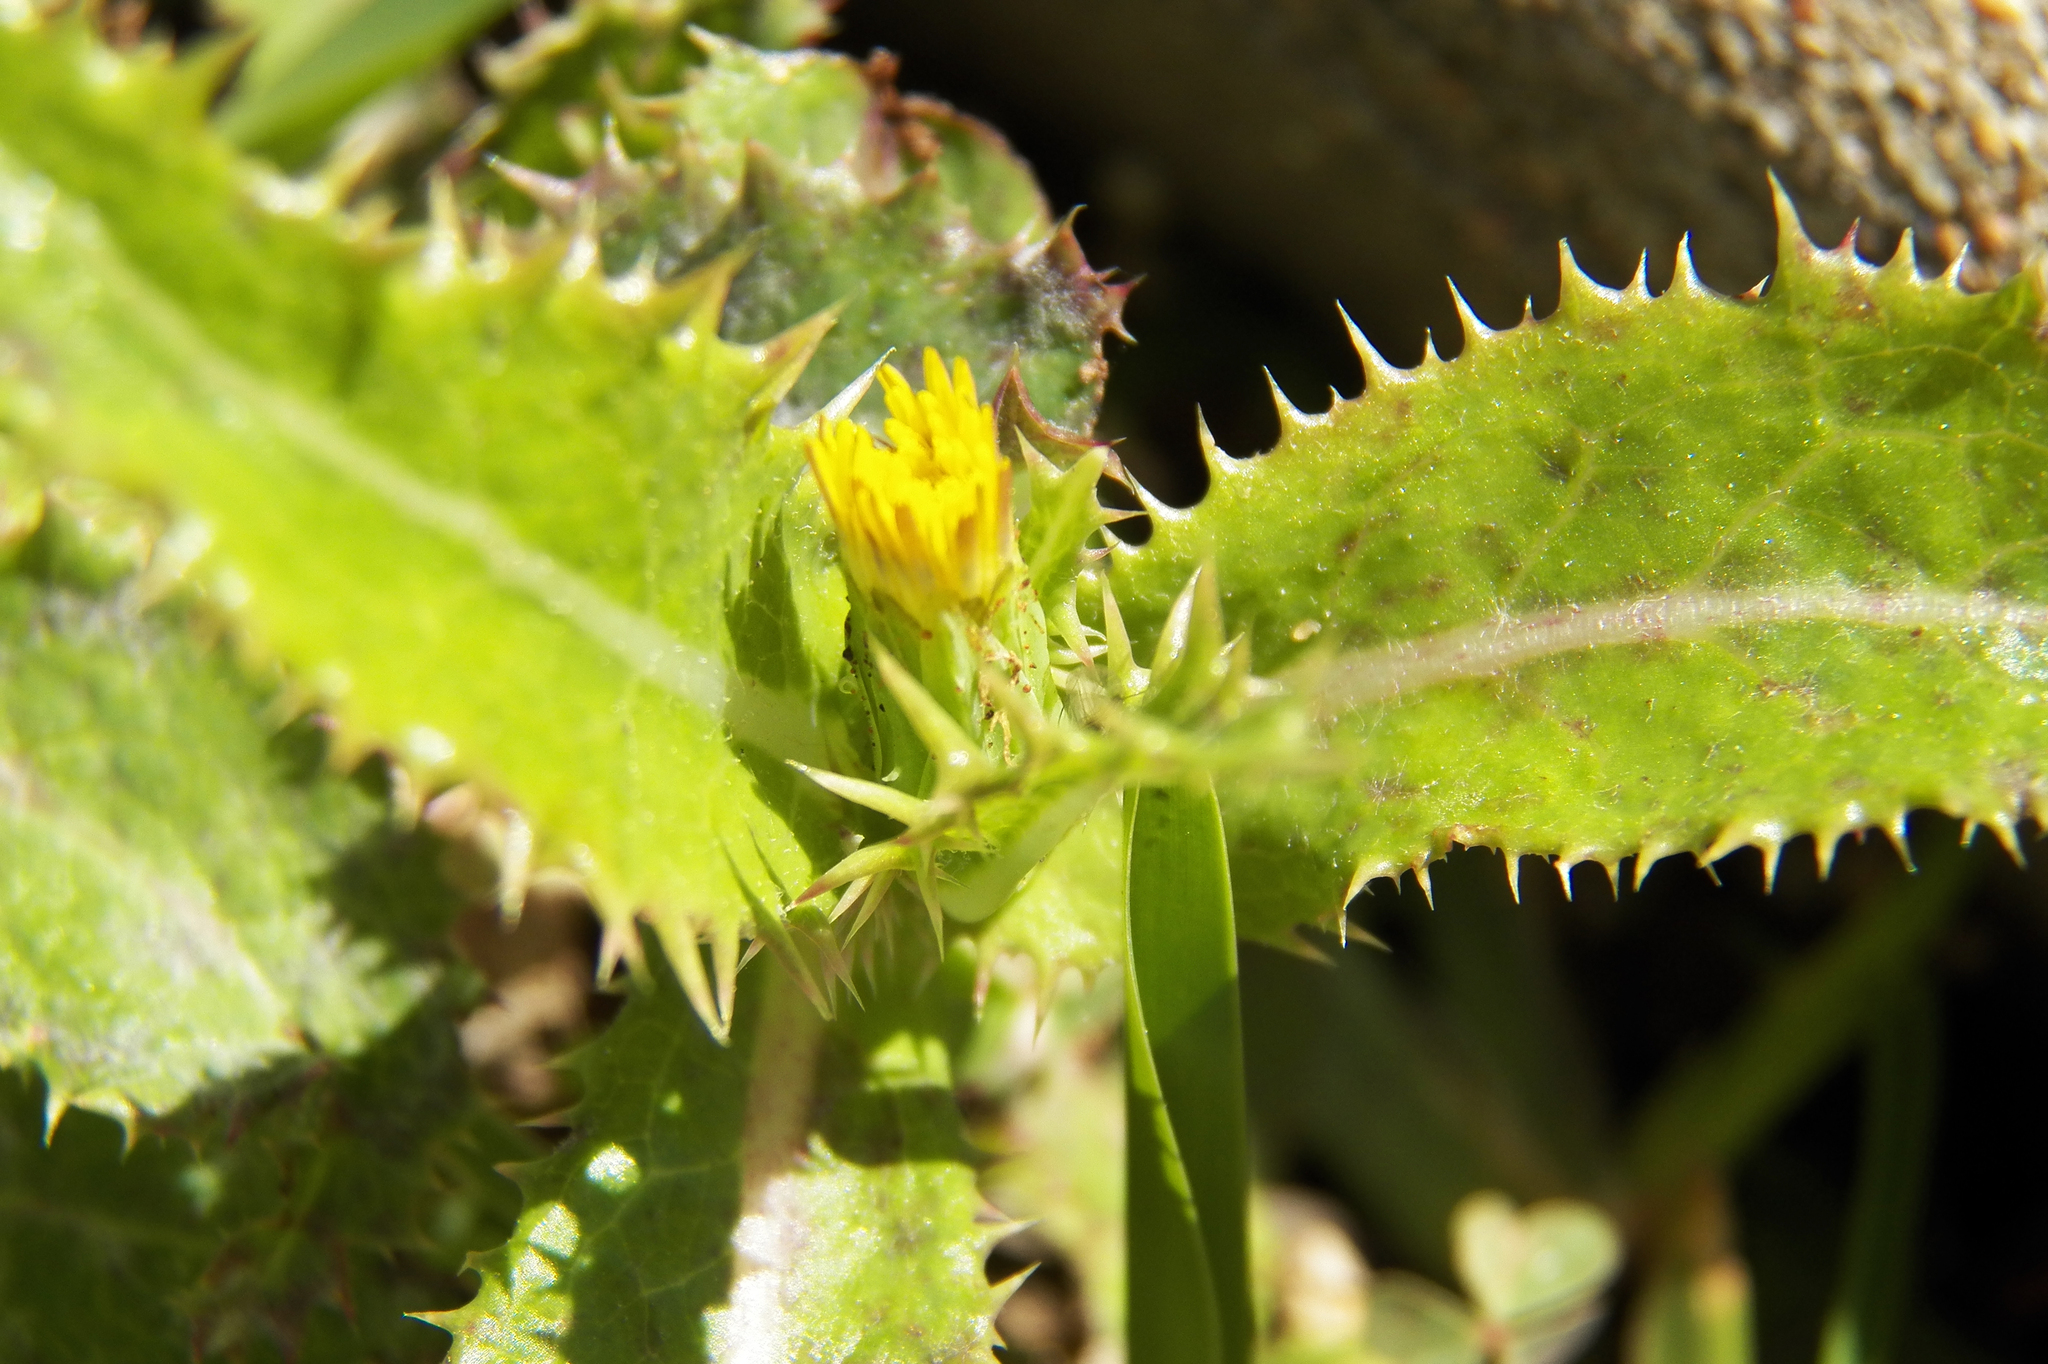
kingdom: Plantae
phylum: Tracheophyta
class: Magnoliopsida
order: Asterales
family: Asteraceae
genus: Sonchus
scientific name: Sonchus asper
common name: Prickly sow-thistle
